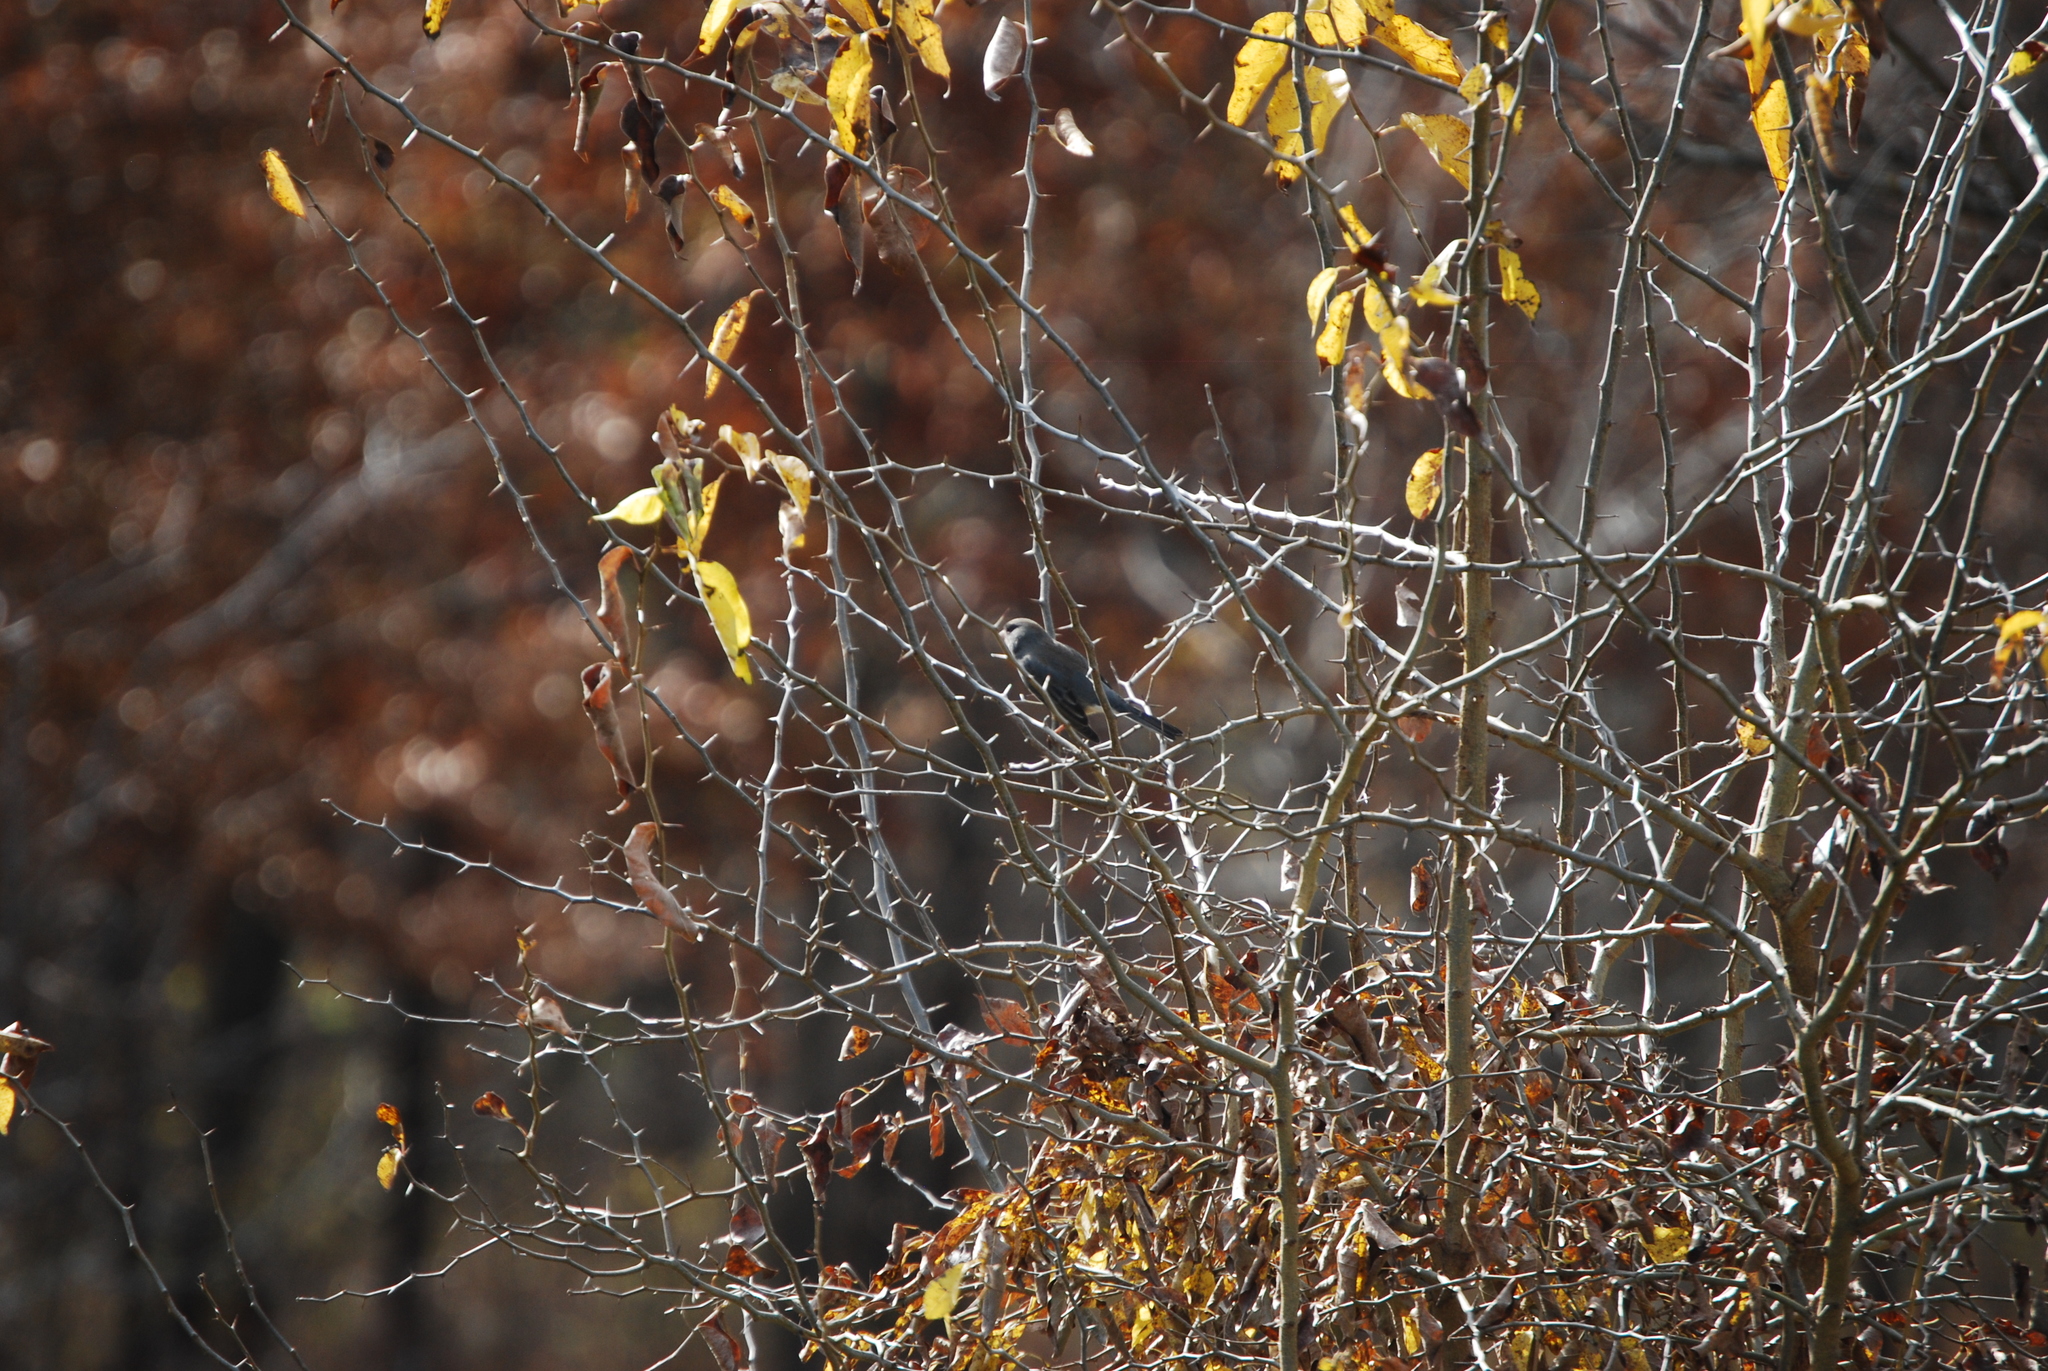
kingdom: Animalia
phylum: Chordata
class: Aves
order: Passeriformes
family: Passerellidae
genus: Junco
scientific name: Junco hyemalis
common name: Dark-eyed junco
